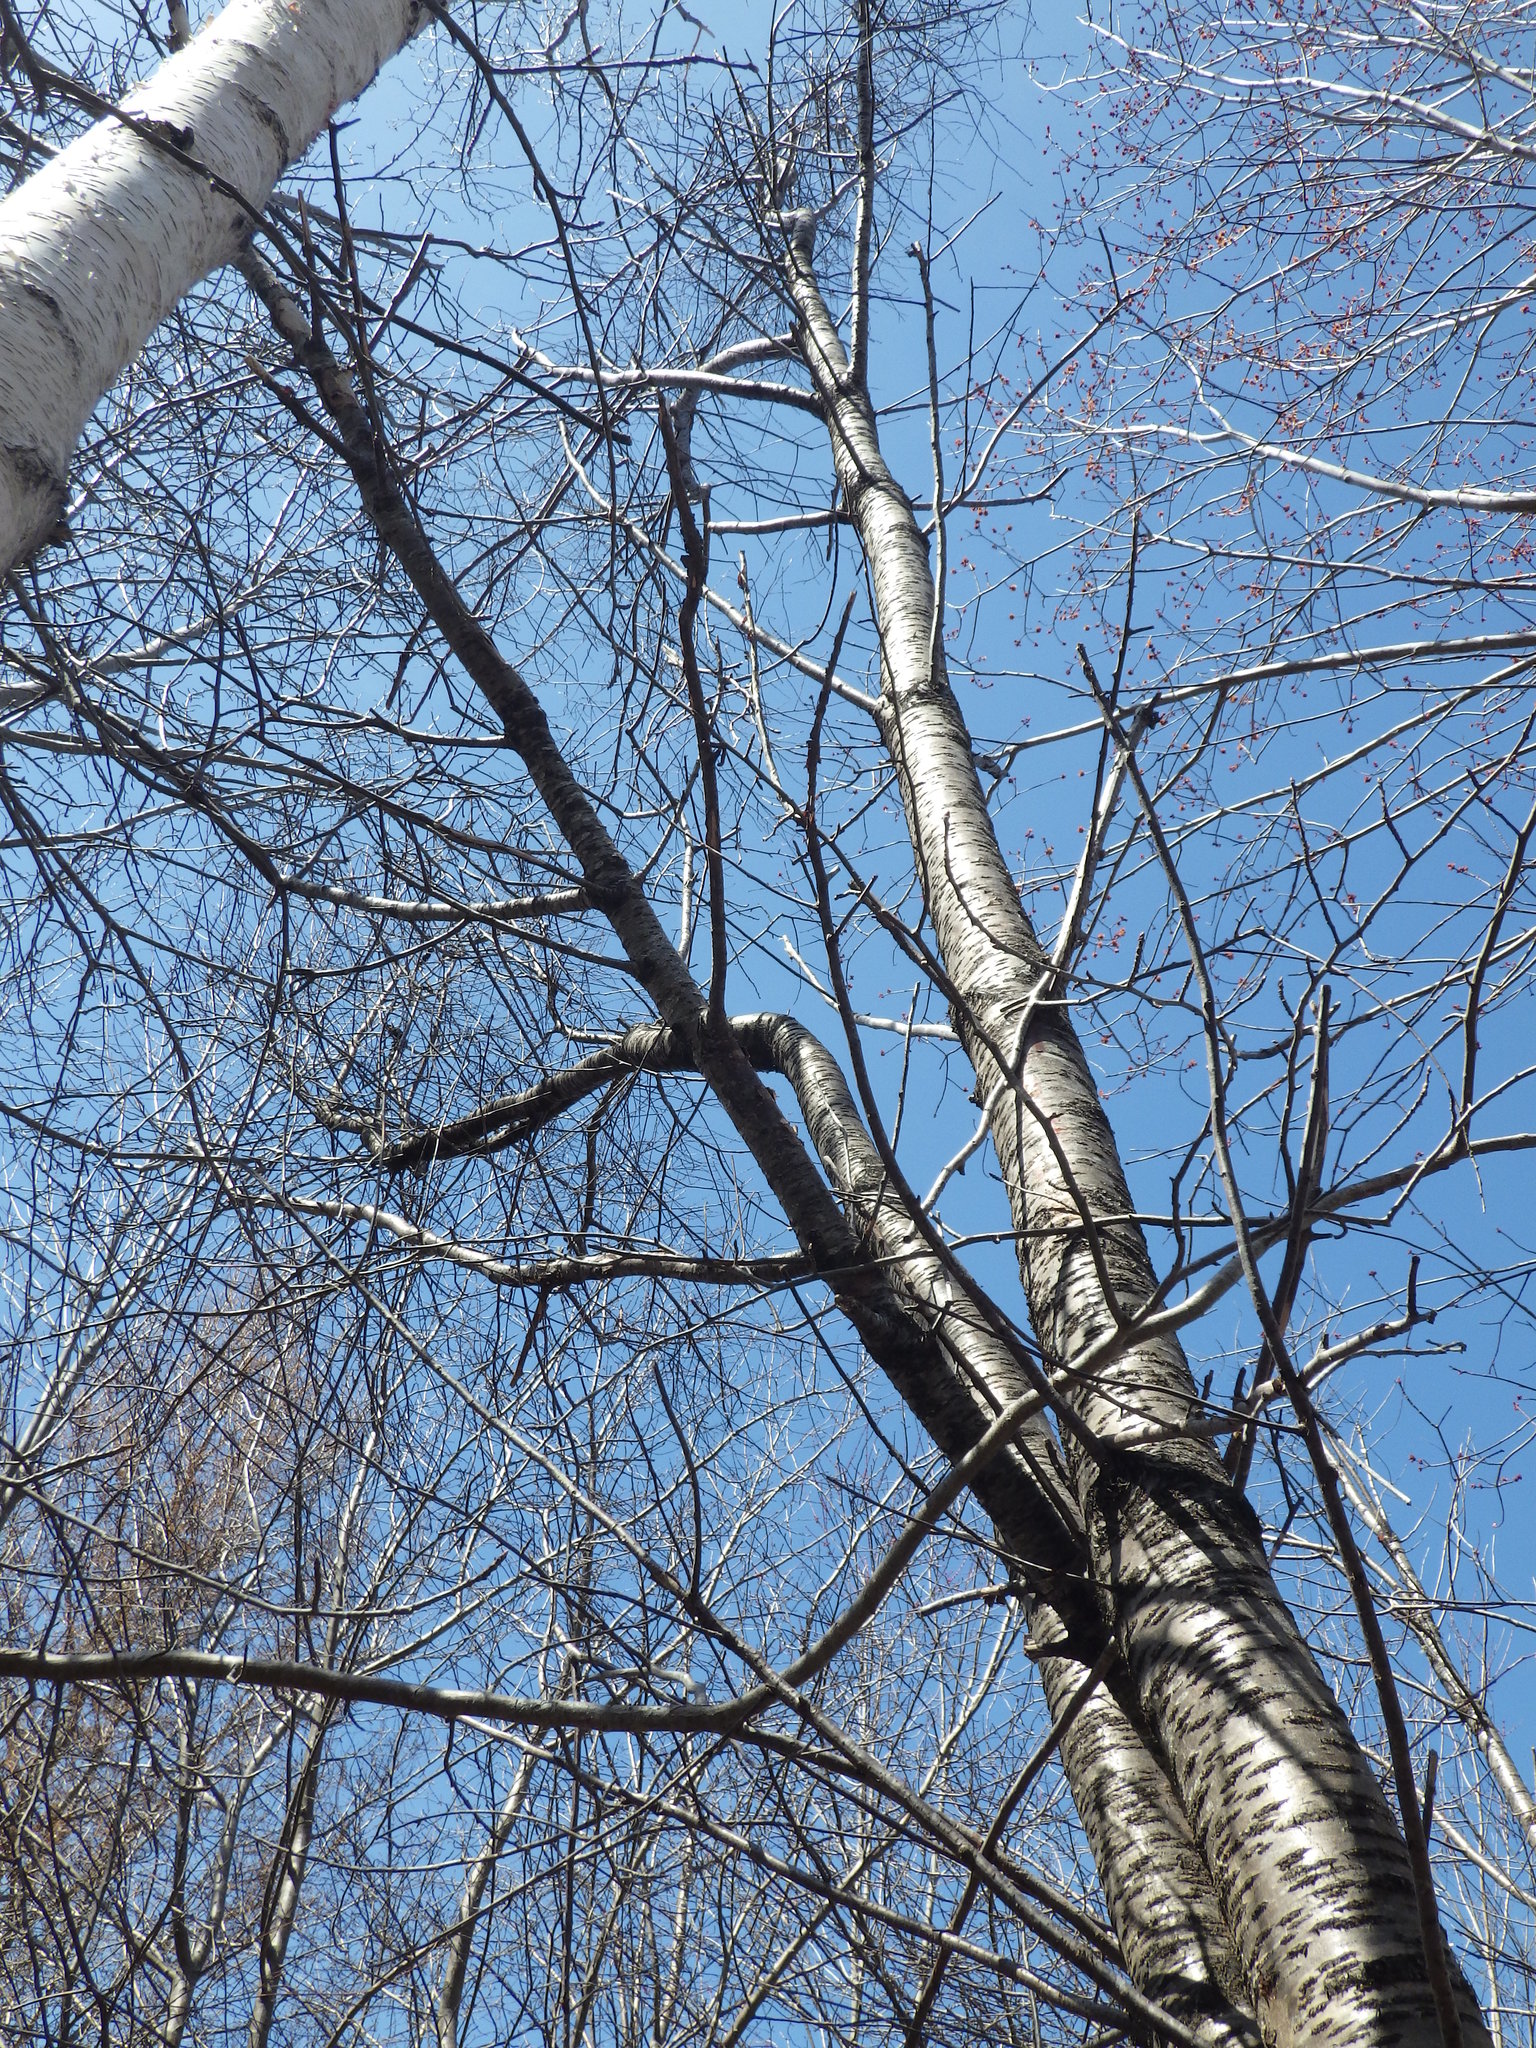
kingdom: Plantae
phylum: Tracheophyta
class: Magnoliopsida
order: Rosales
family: Rosaceae
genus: Prunus
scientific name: Prunus pensylvanica
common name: Pin cherry
